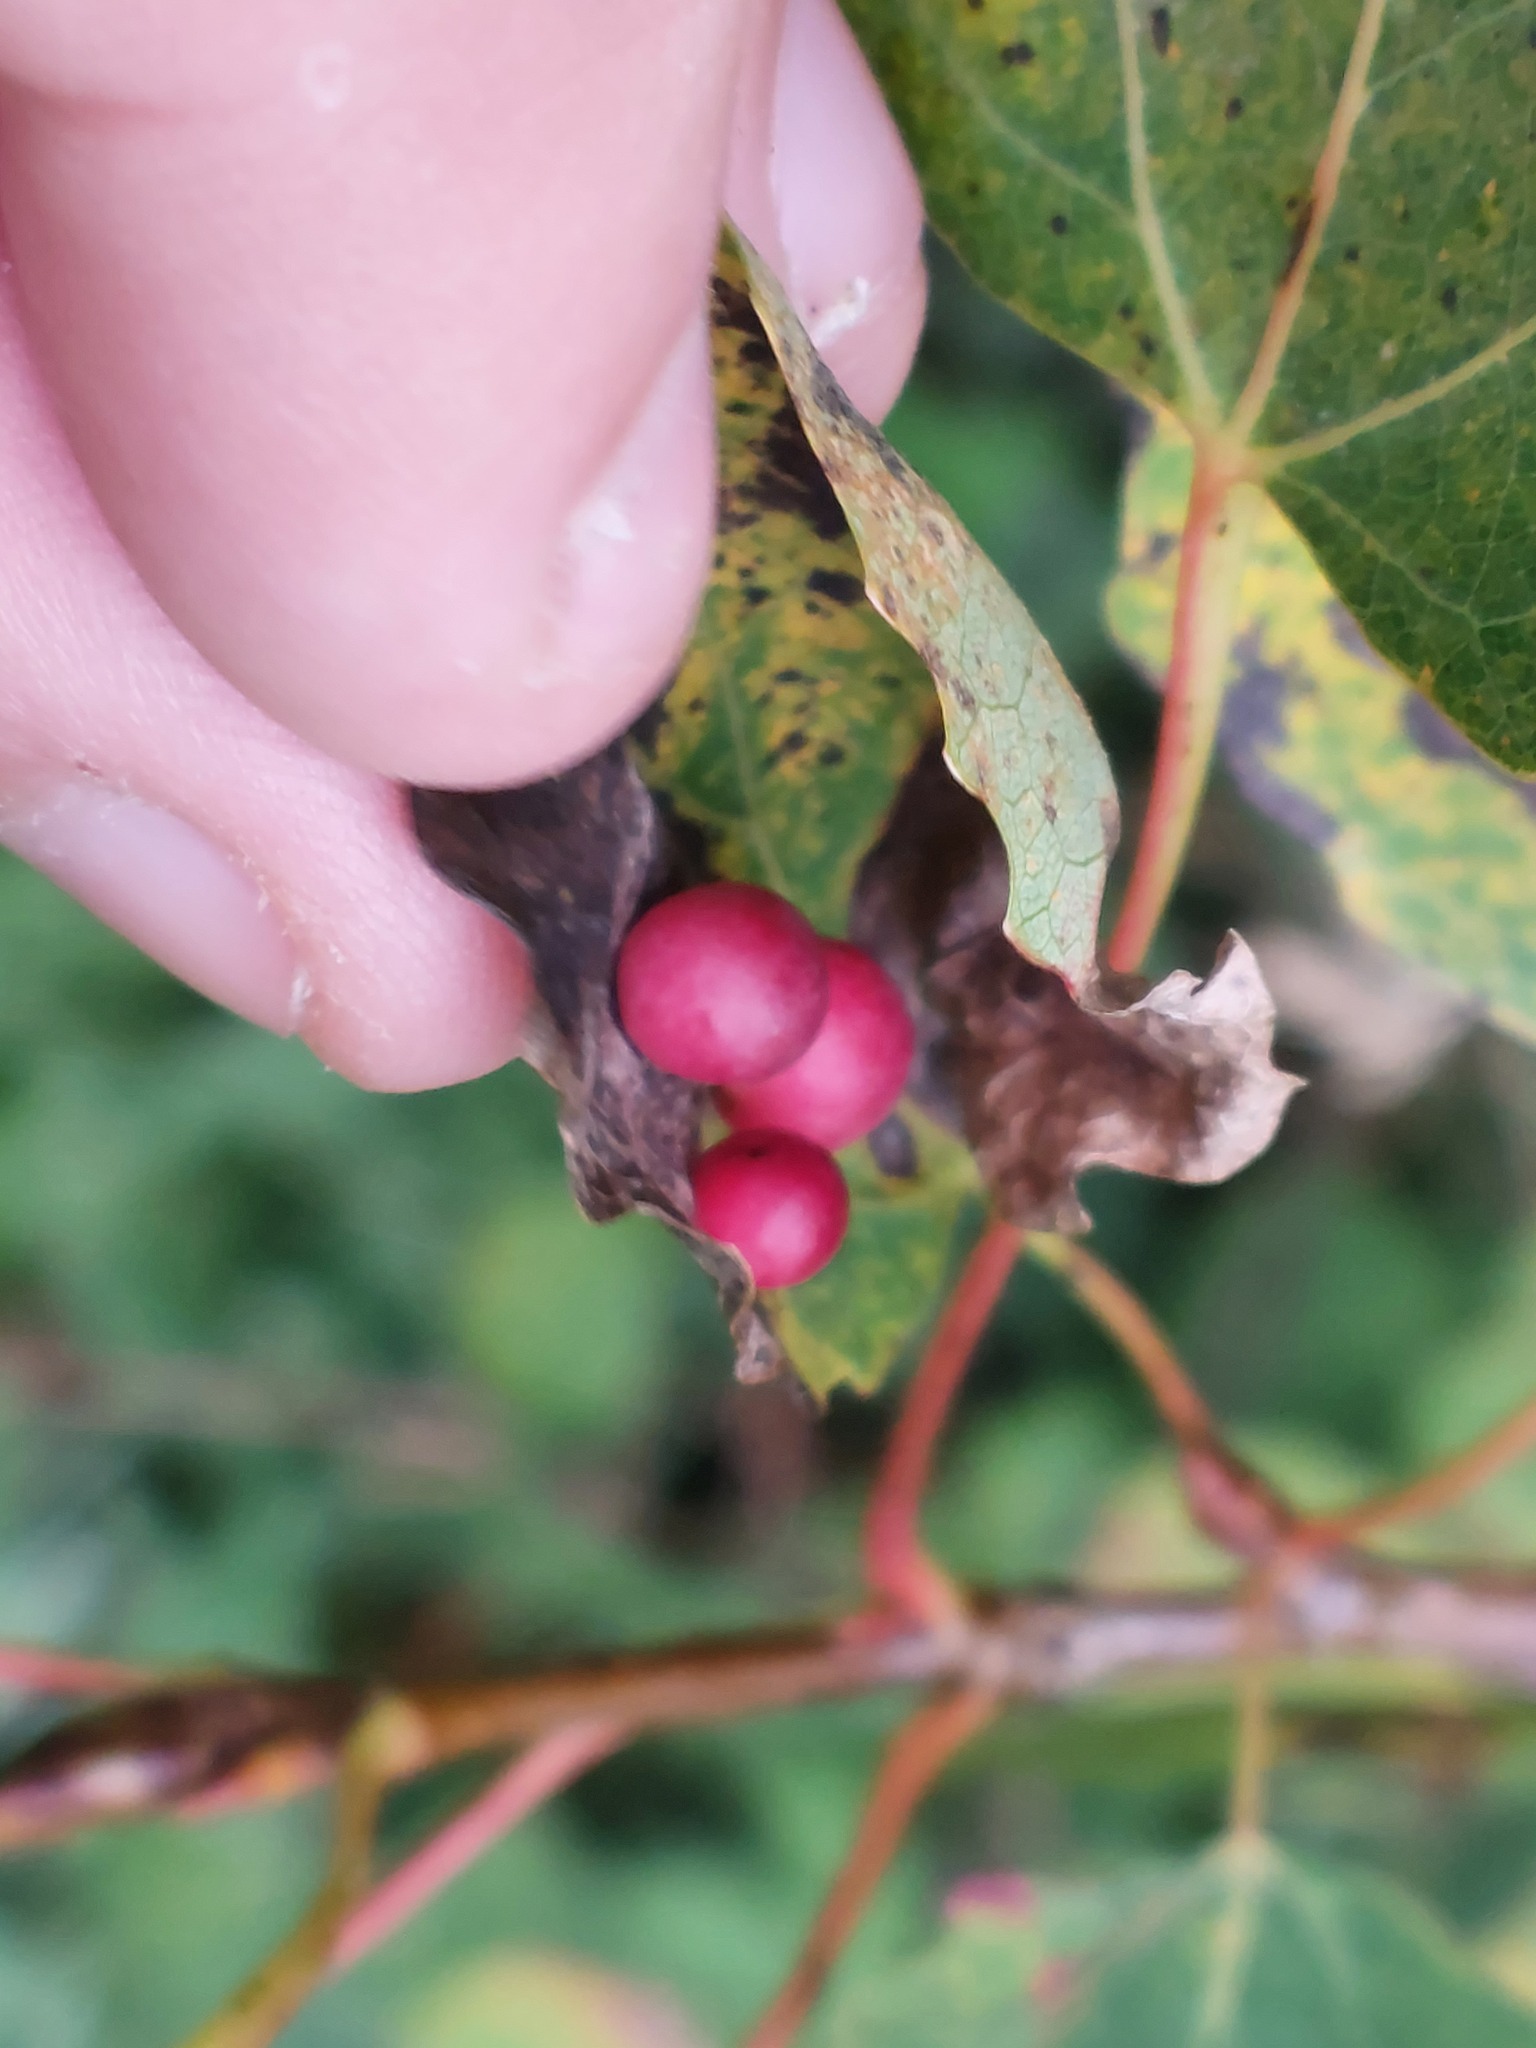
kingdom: Animalia
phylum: Arthropoda
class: Insecta
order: Diptera
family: Cecidomyiidae
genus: Harmandiola
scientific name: Harmandiola tremulae
